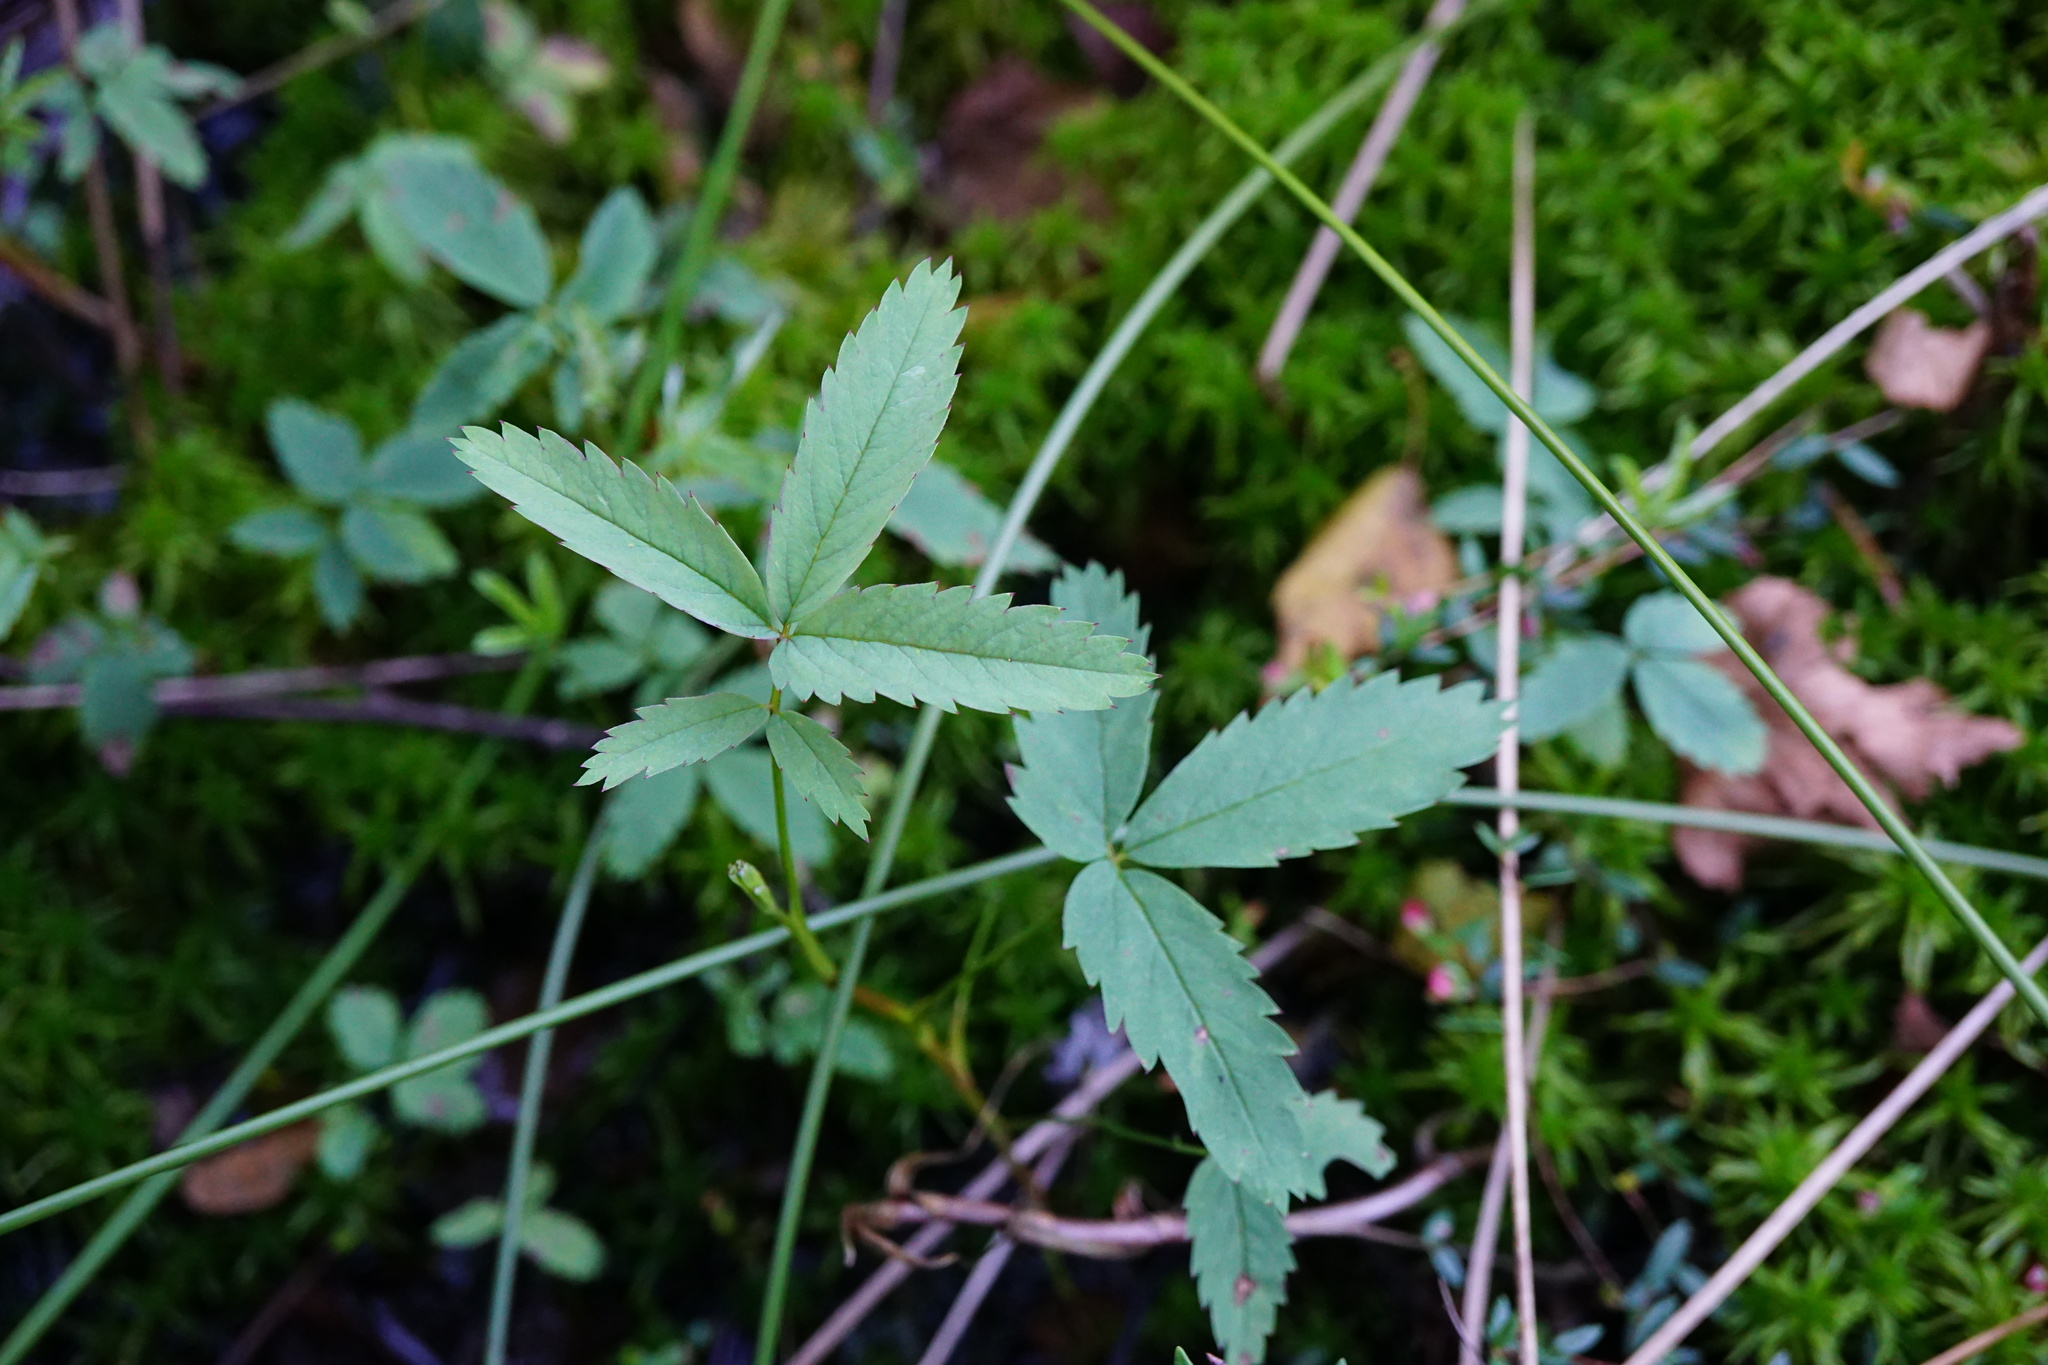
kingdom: Plantae
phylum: Tracheophyta
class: Magnoliopsida
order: Rosales
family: Rosaceae
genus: Comarum
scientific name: Comarum palustre
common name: Marsh cinquefoil
